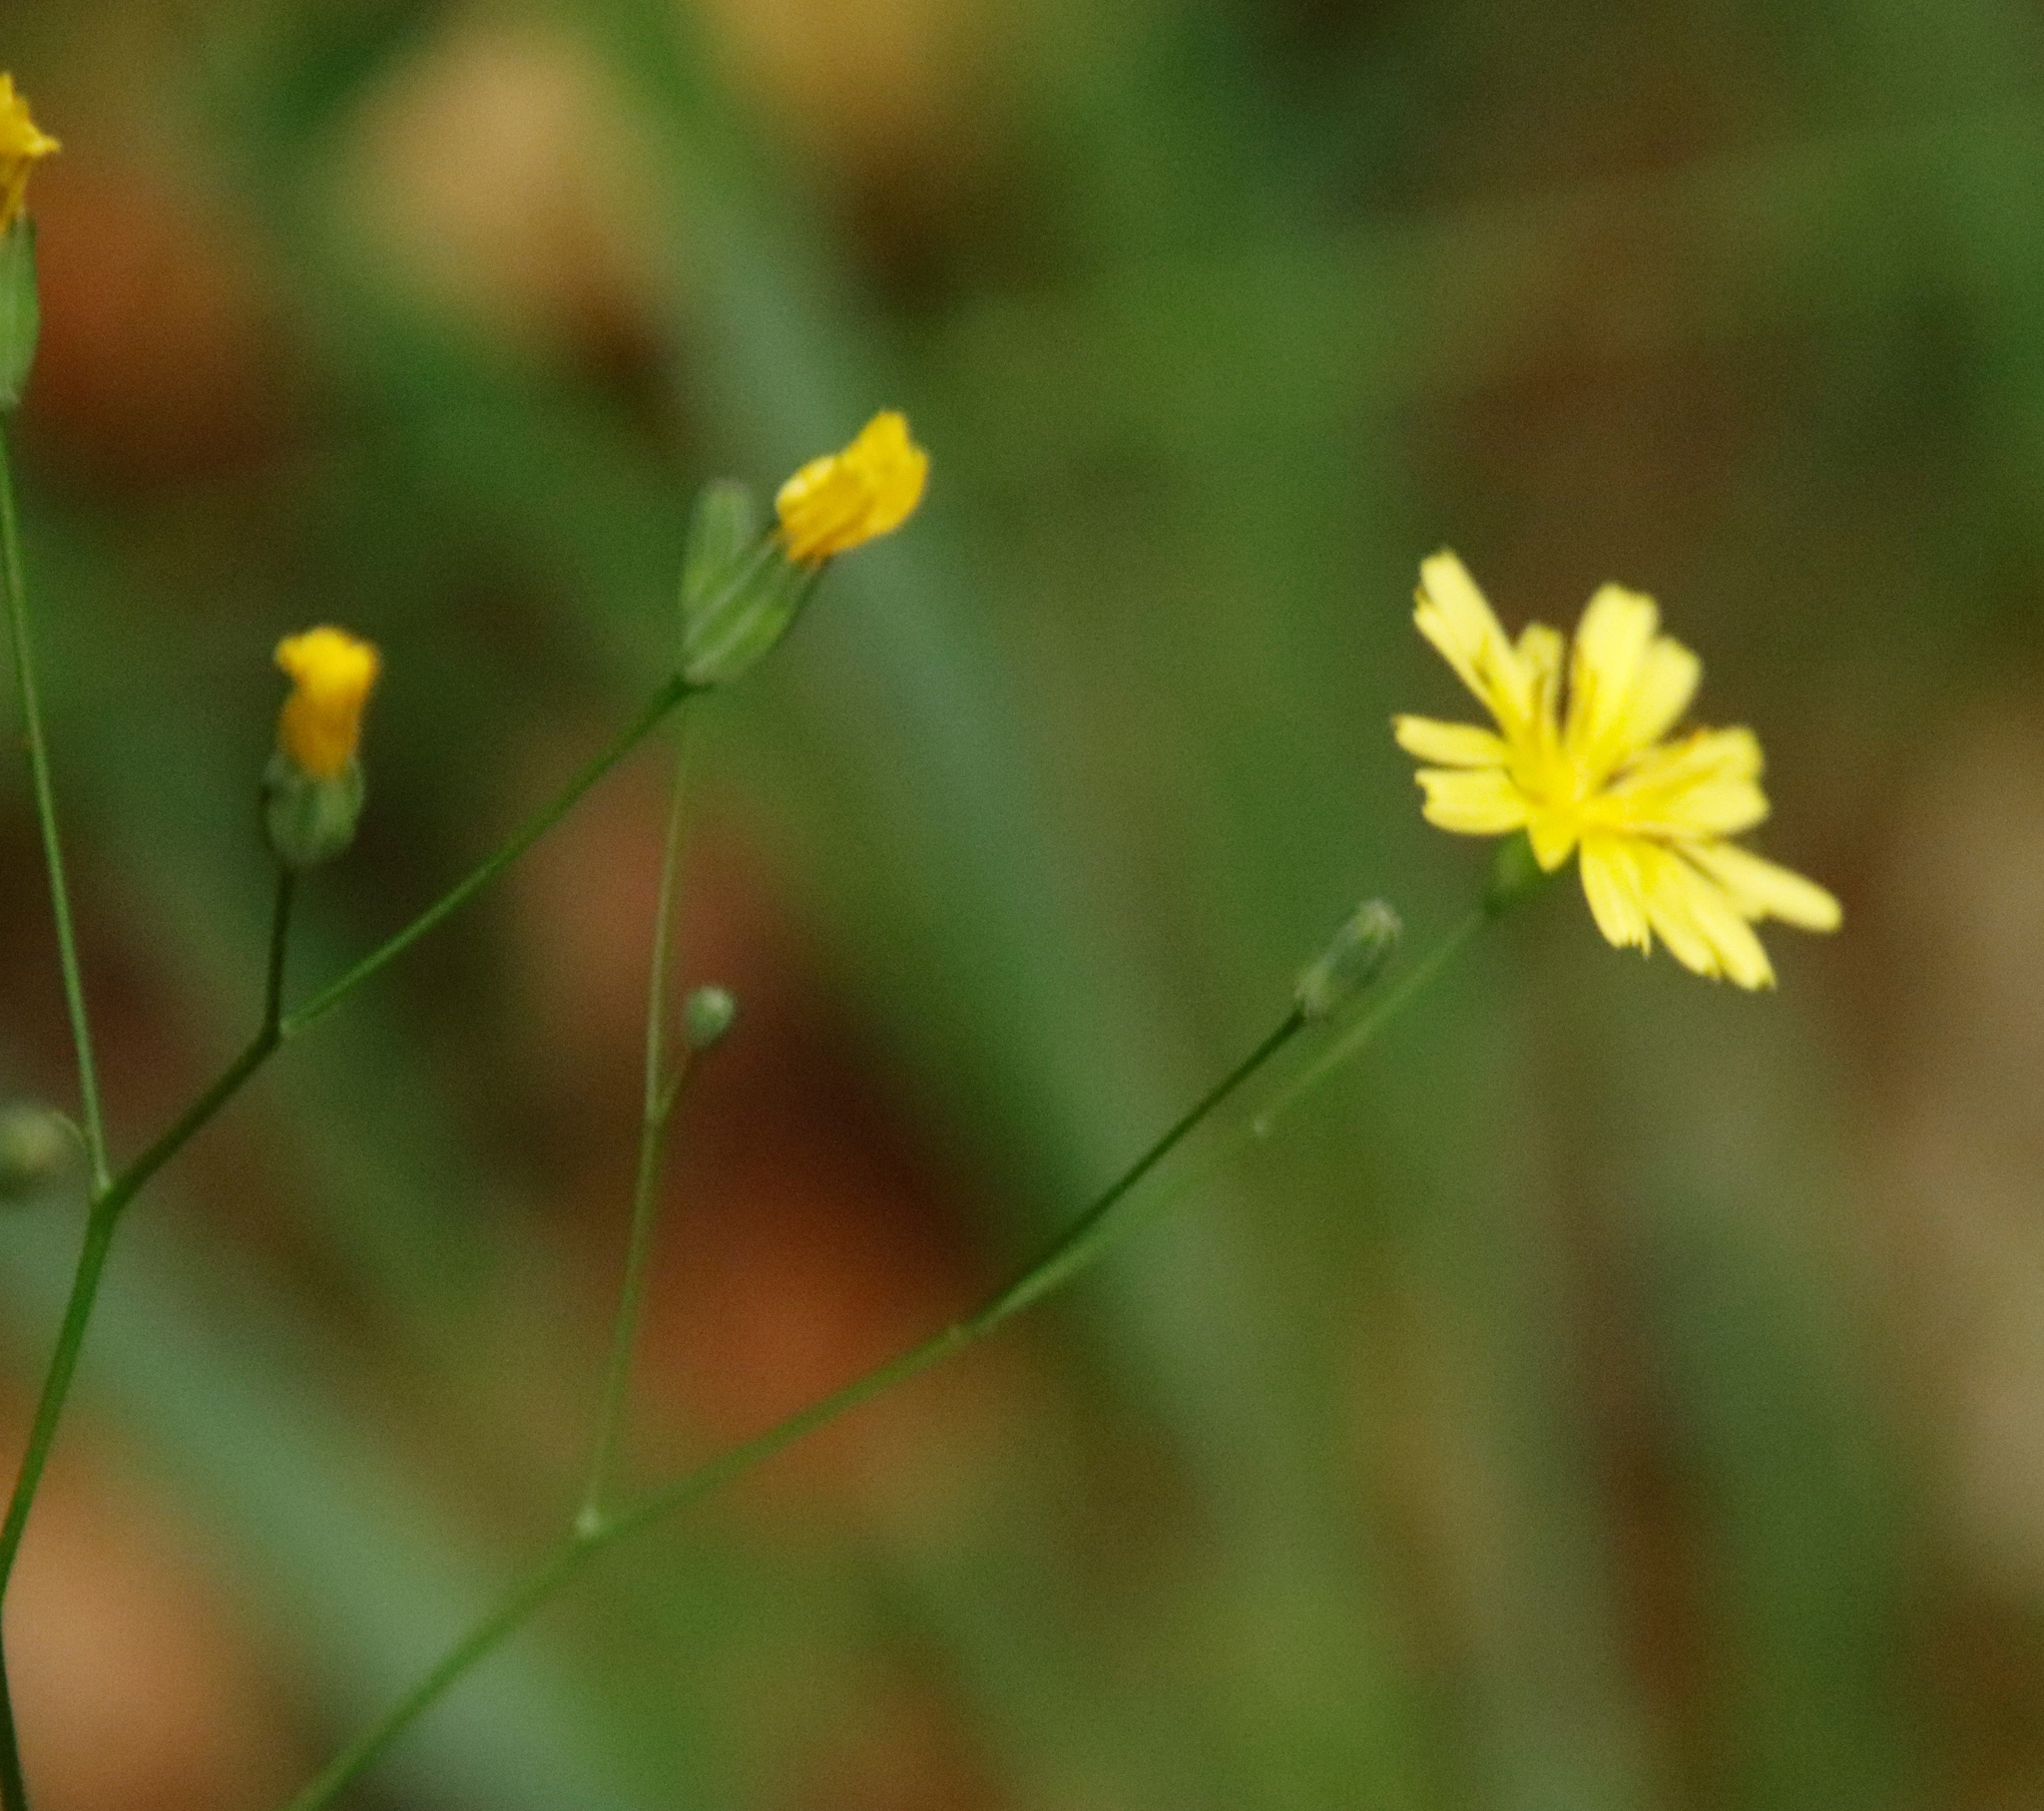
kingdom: Plantae
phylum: Tracheophyta
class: Magnoliopsida
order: Asterales
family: Asteraceae
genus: Lapsana
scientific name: Lapsana communis
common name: Nipplewort
